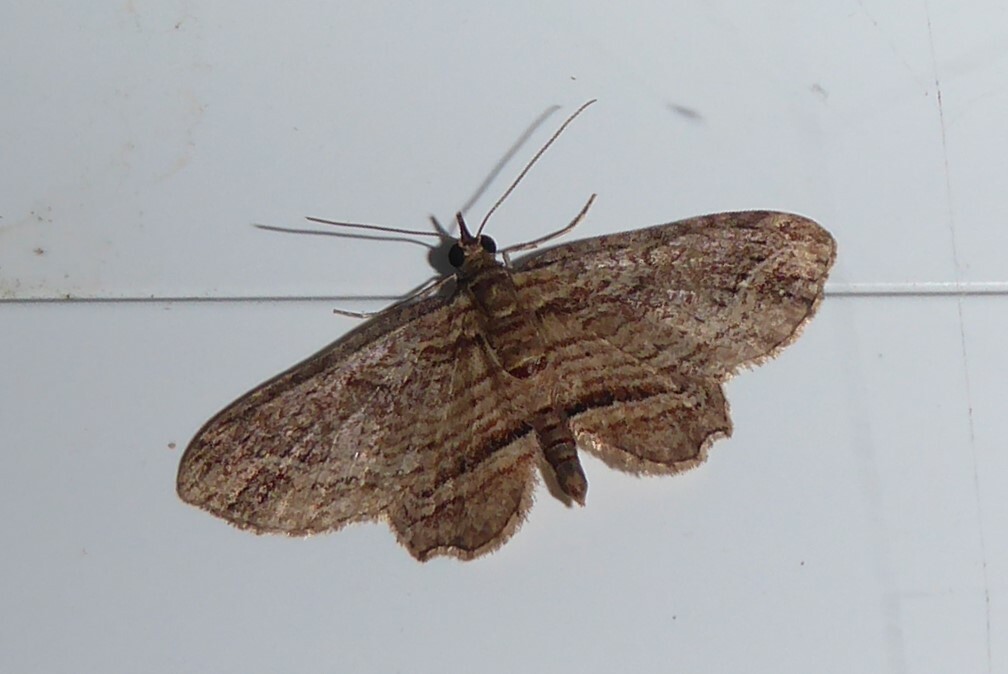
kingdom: Animalia
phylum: Arthropoda
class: Insecta
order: Lepidoptera
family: Geometridae
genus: Chloroclystis
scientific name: Chloroclystis filata
